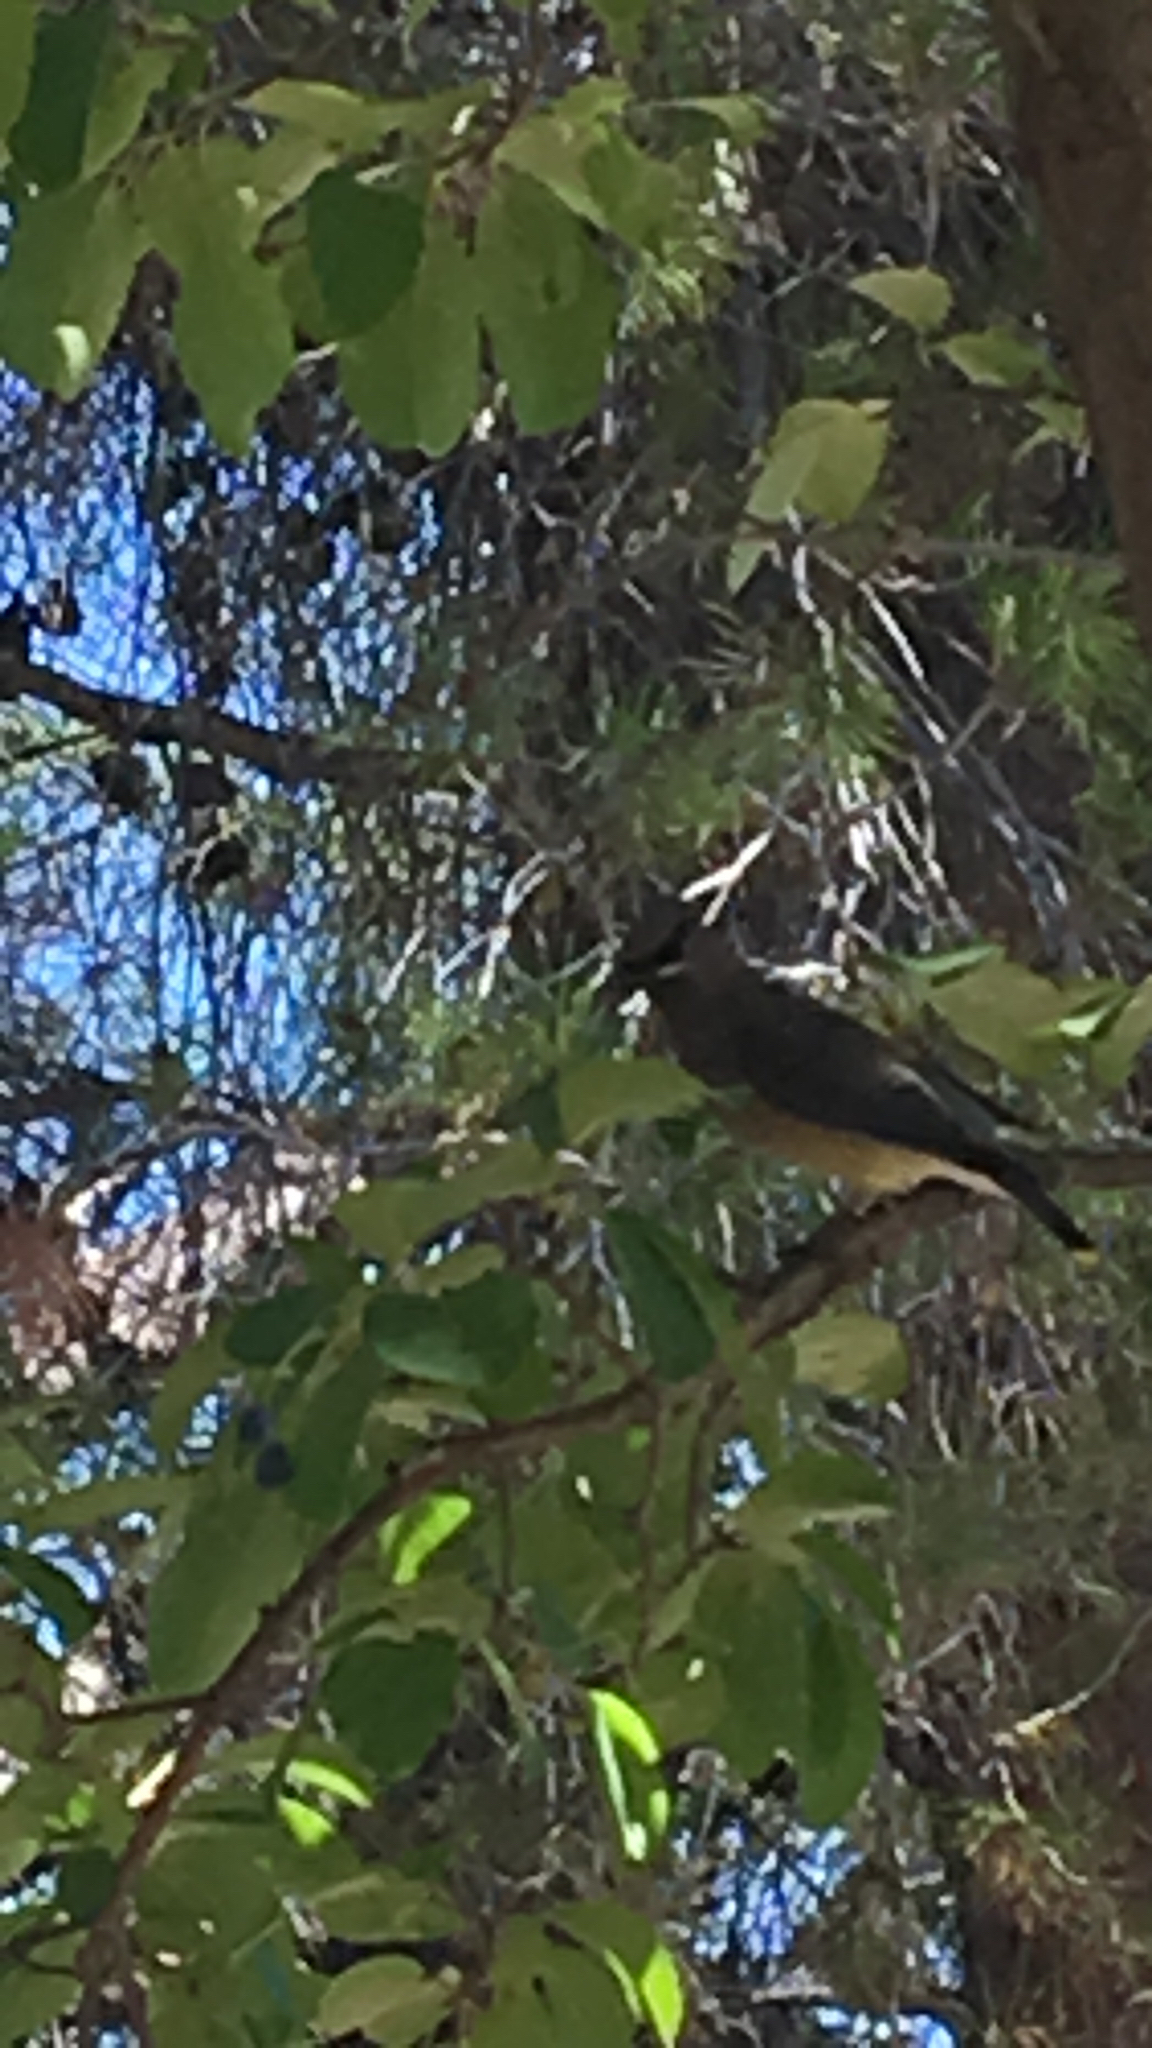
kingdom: Animalia
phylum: Chordata
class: Aves
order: Passeriformes
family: Bombycillidae
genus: Bombycilla
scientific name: Bombycilla cedrorum
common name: Cedar waxwing
